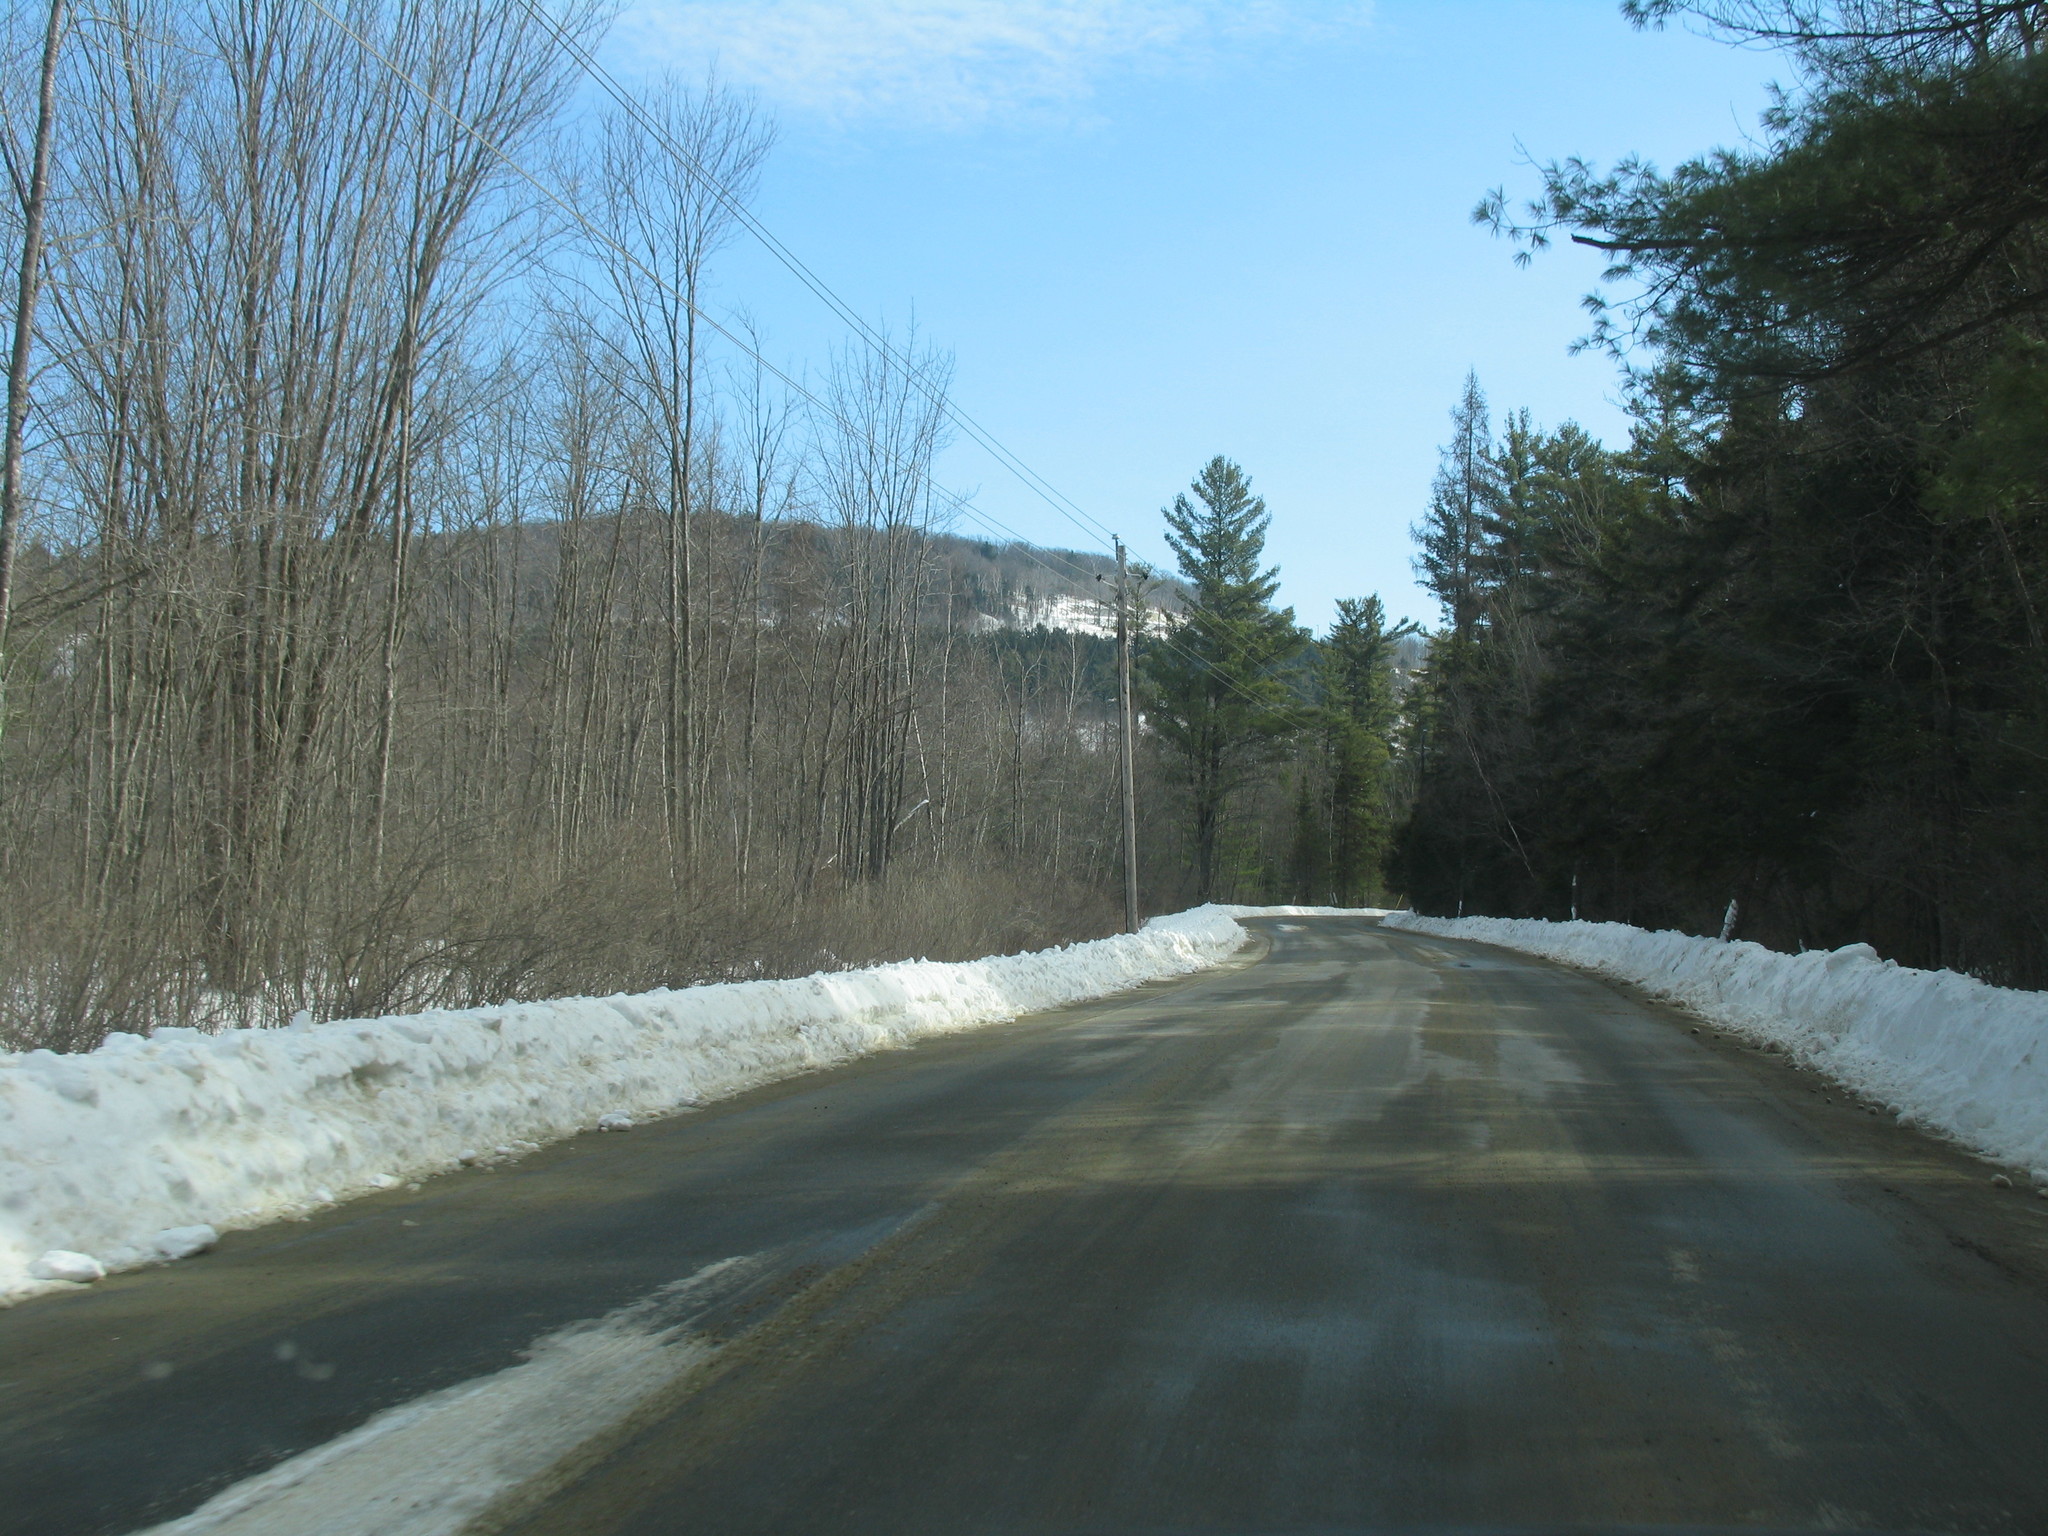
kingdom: Plantae
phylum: Tracheophyta
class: Pinopsida
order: Pinales
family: Pinaceae
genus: Pinus
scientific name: Pinus strobus
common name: Weymouth pine
